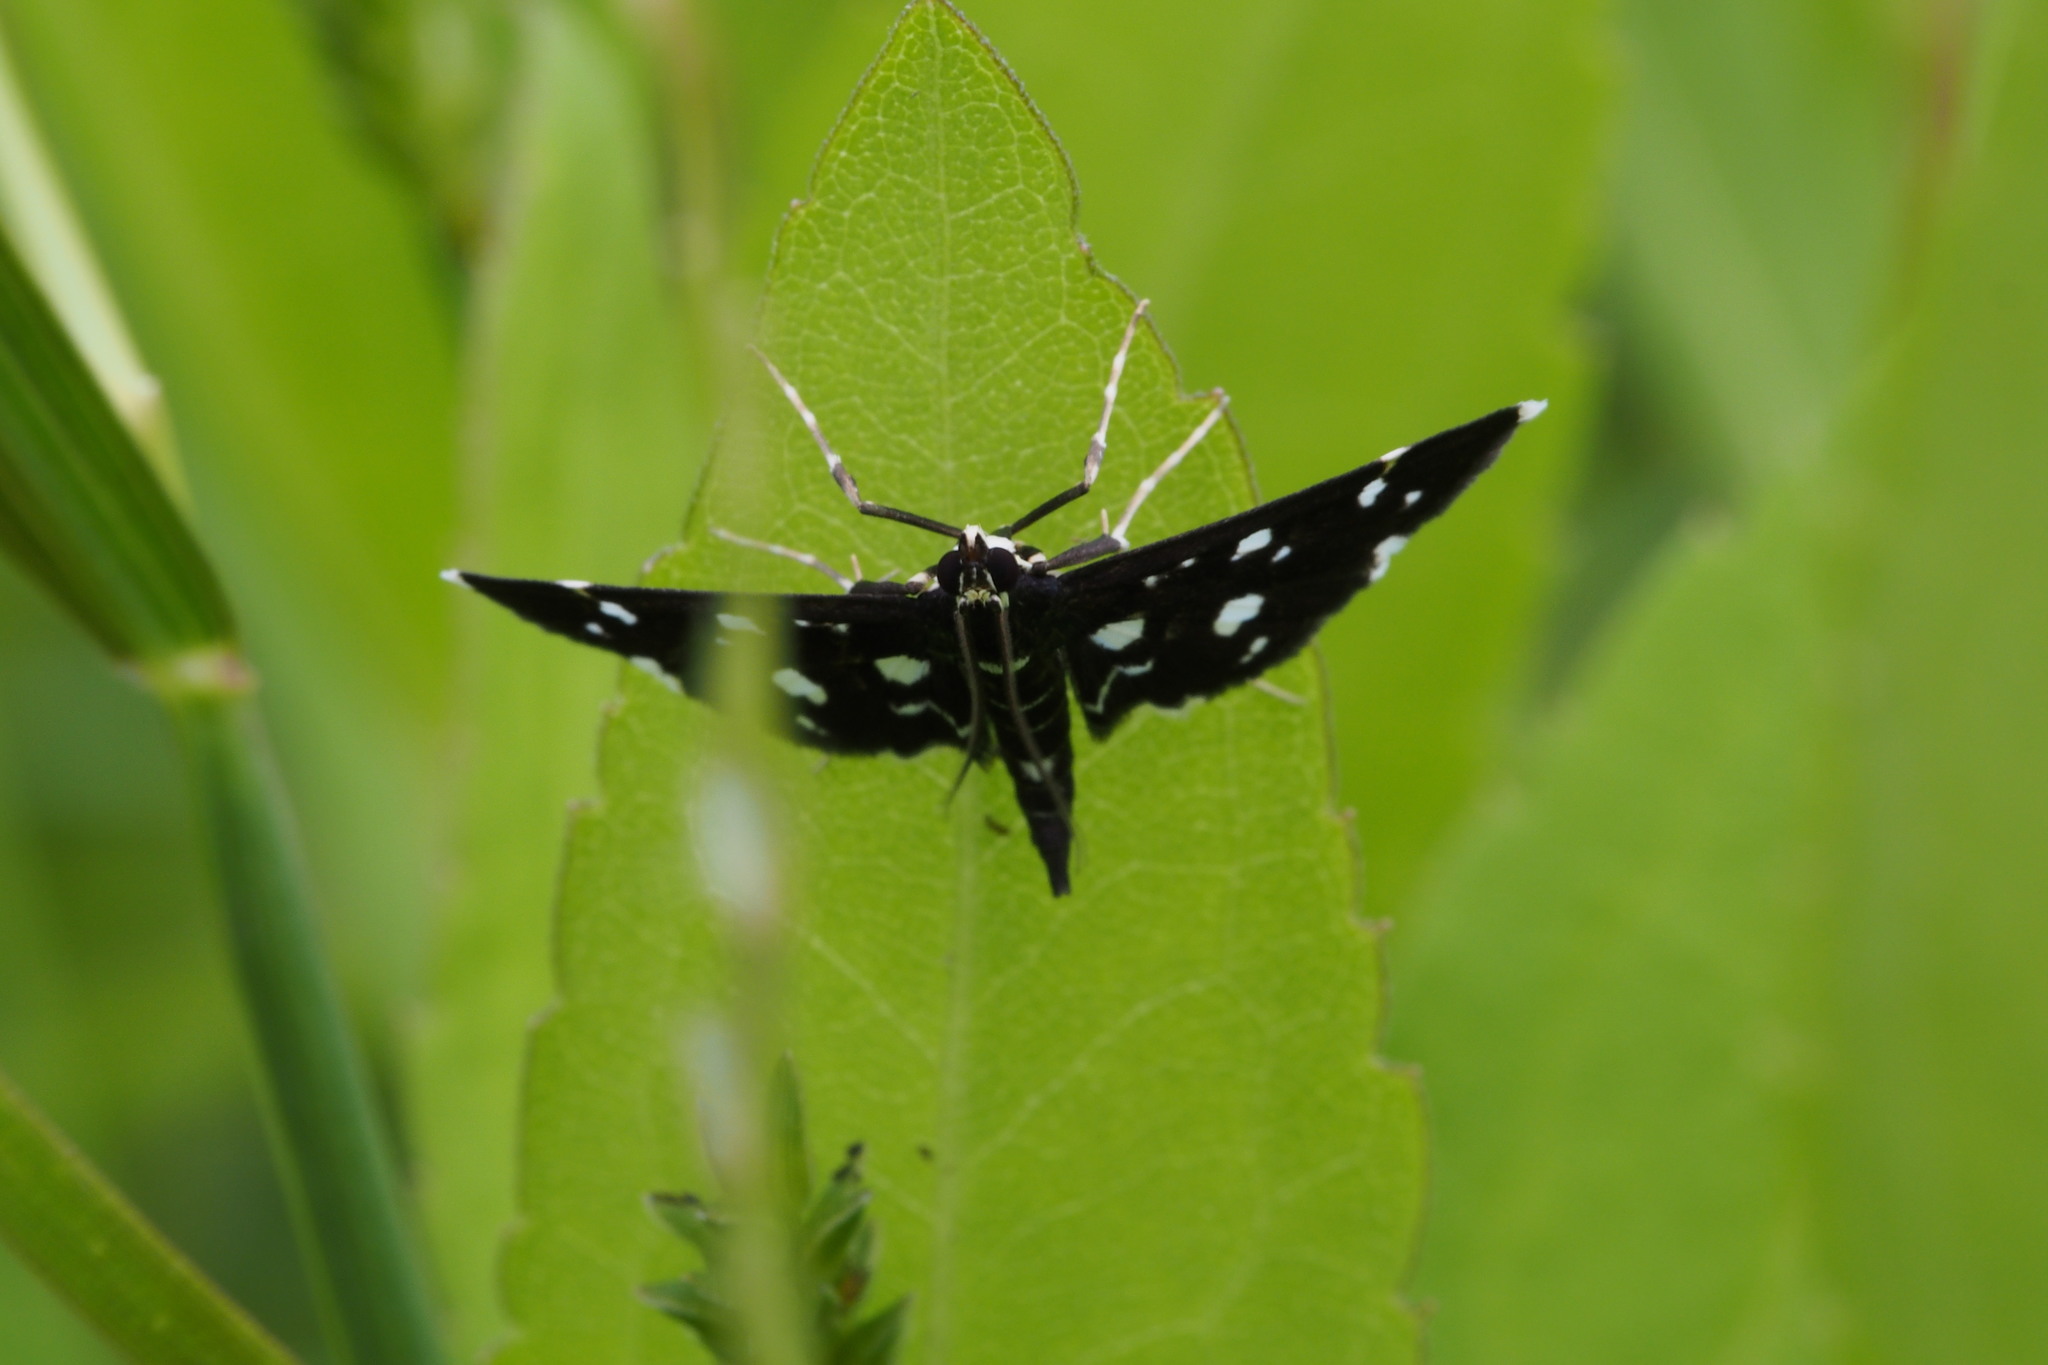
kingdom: Animalia
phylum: Arthropoda
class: Insecta
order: Lepidoptera
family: Crambidae
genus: Bocchoris
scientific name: Bocchoris inspersalis
